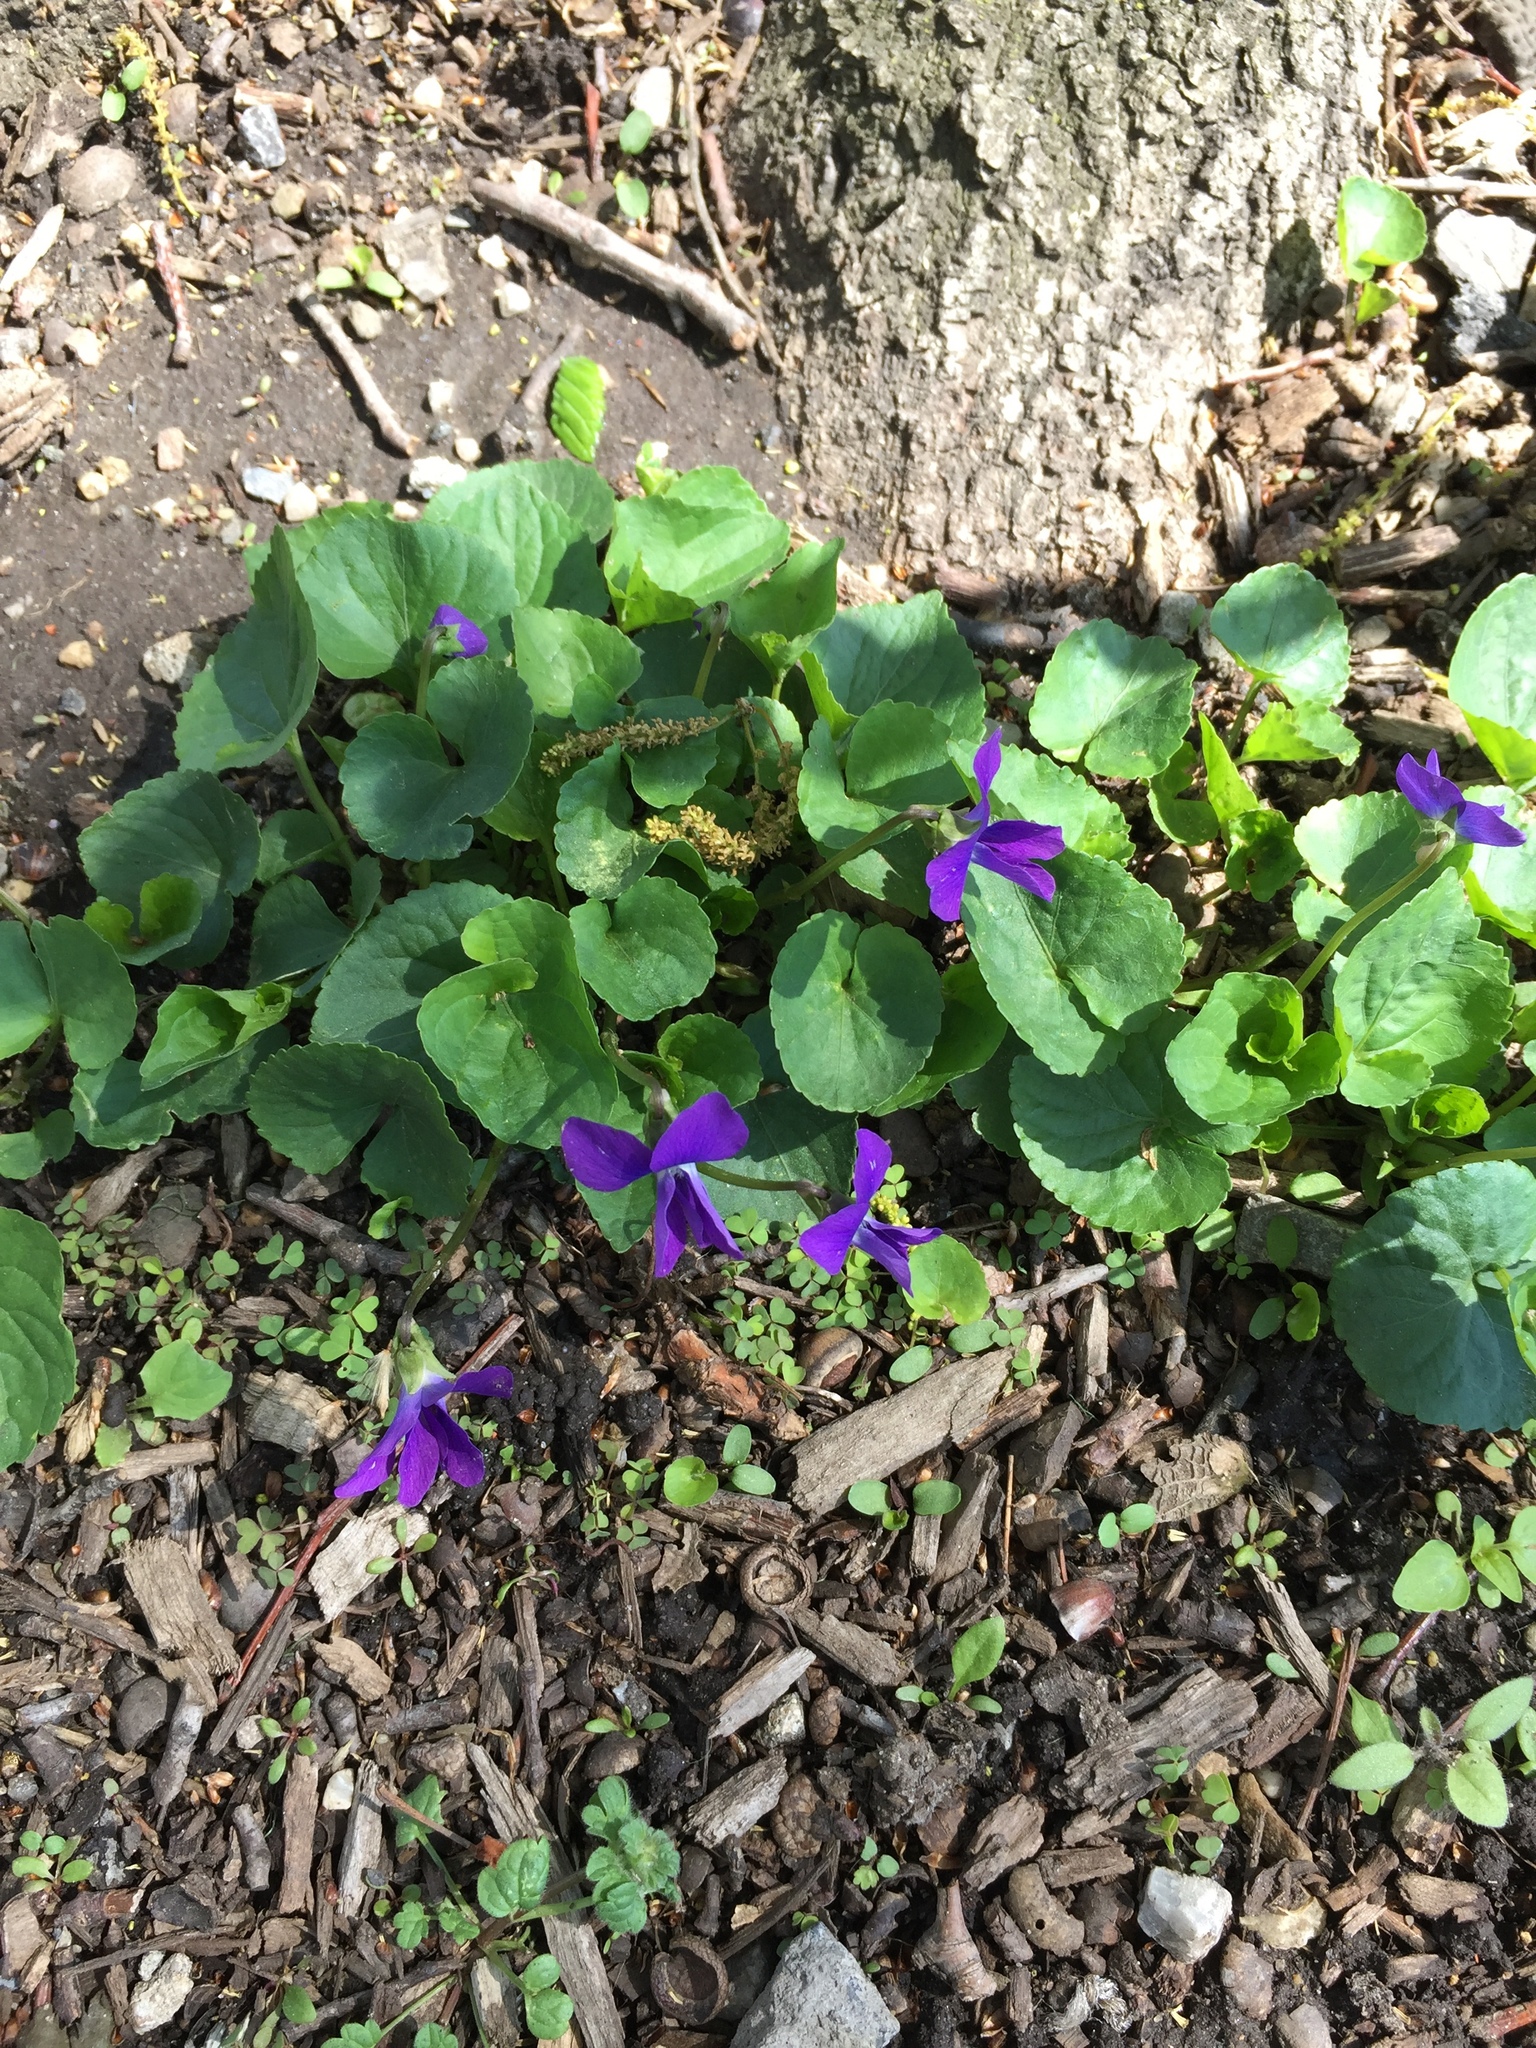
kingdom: Plantae
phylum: Tracheophyta
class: Magnoliopsida
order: Malpighiales
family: Violaceae
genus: Viola
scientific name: Viola sororia
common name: Dooryard violet
